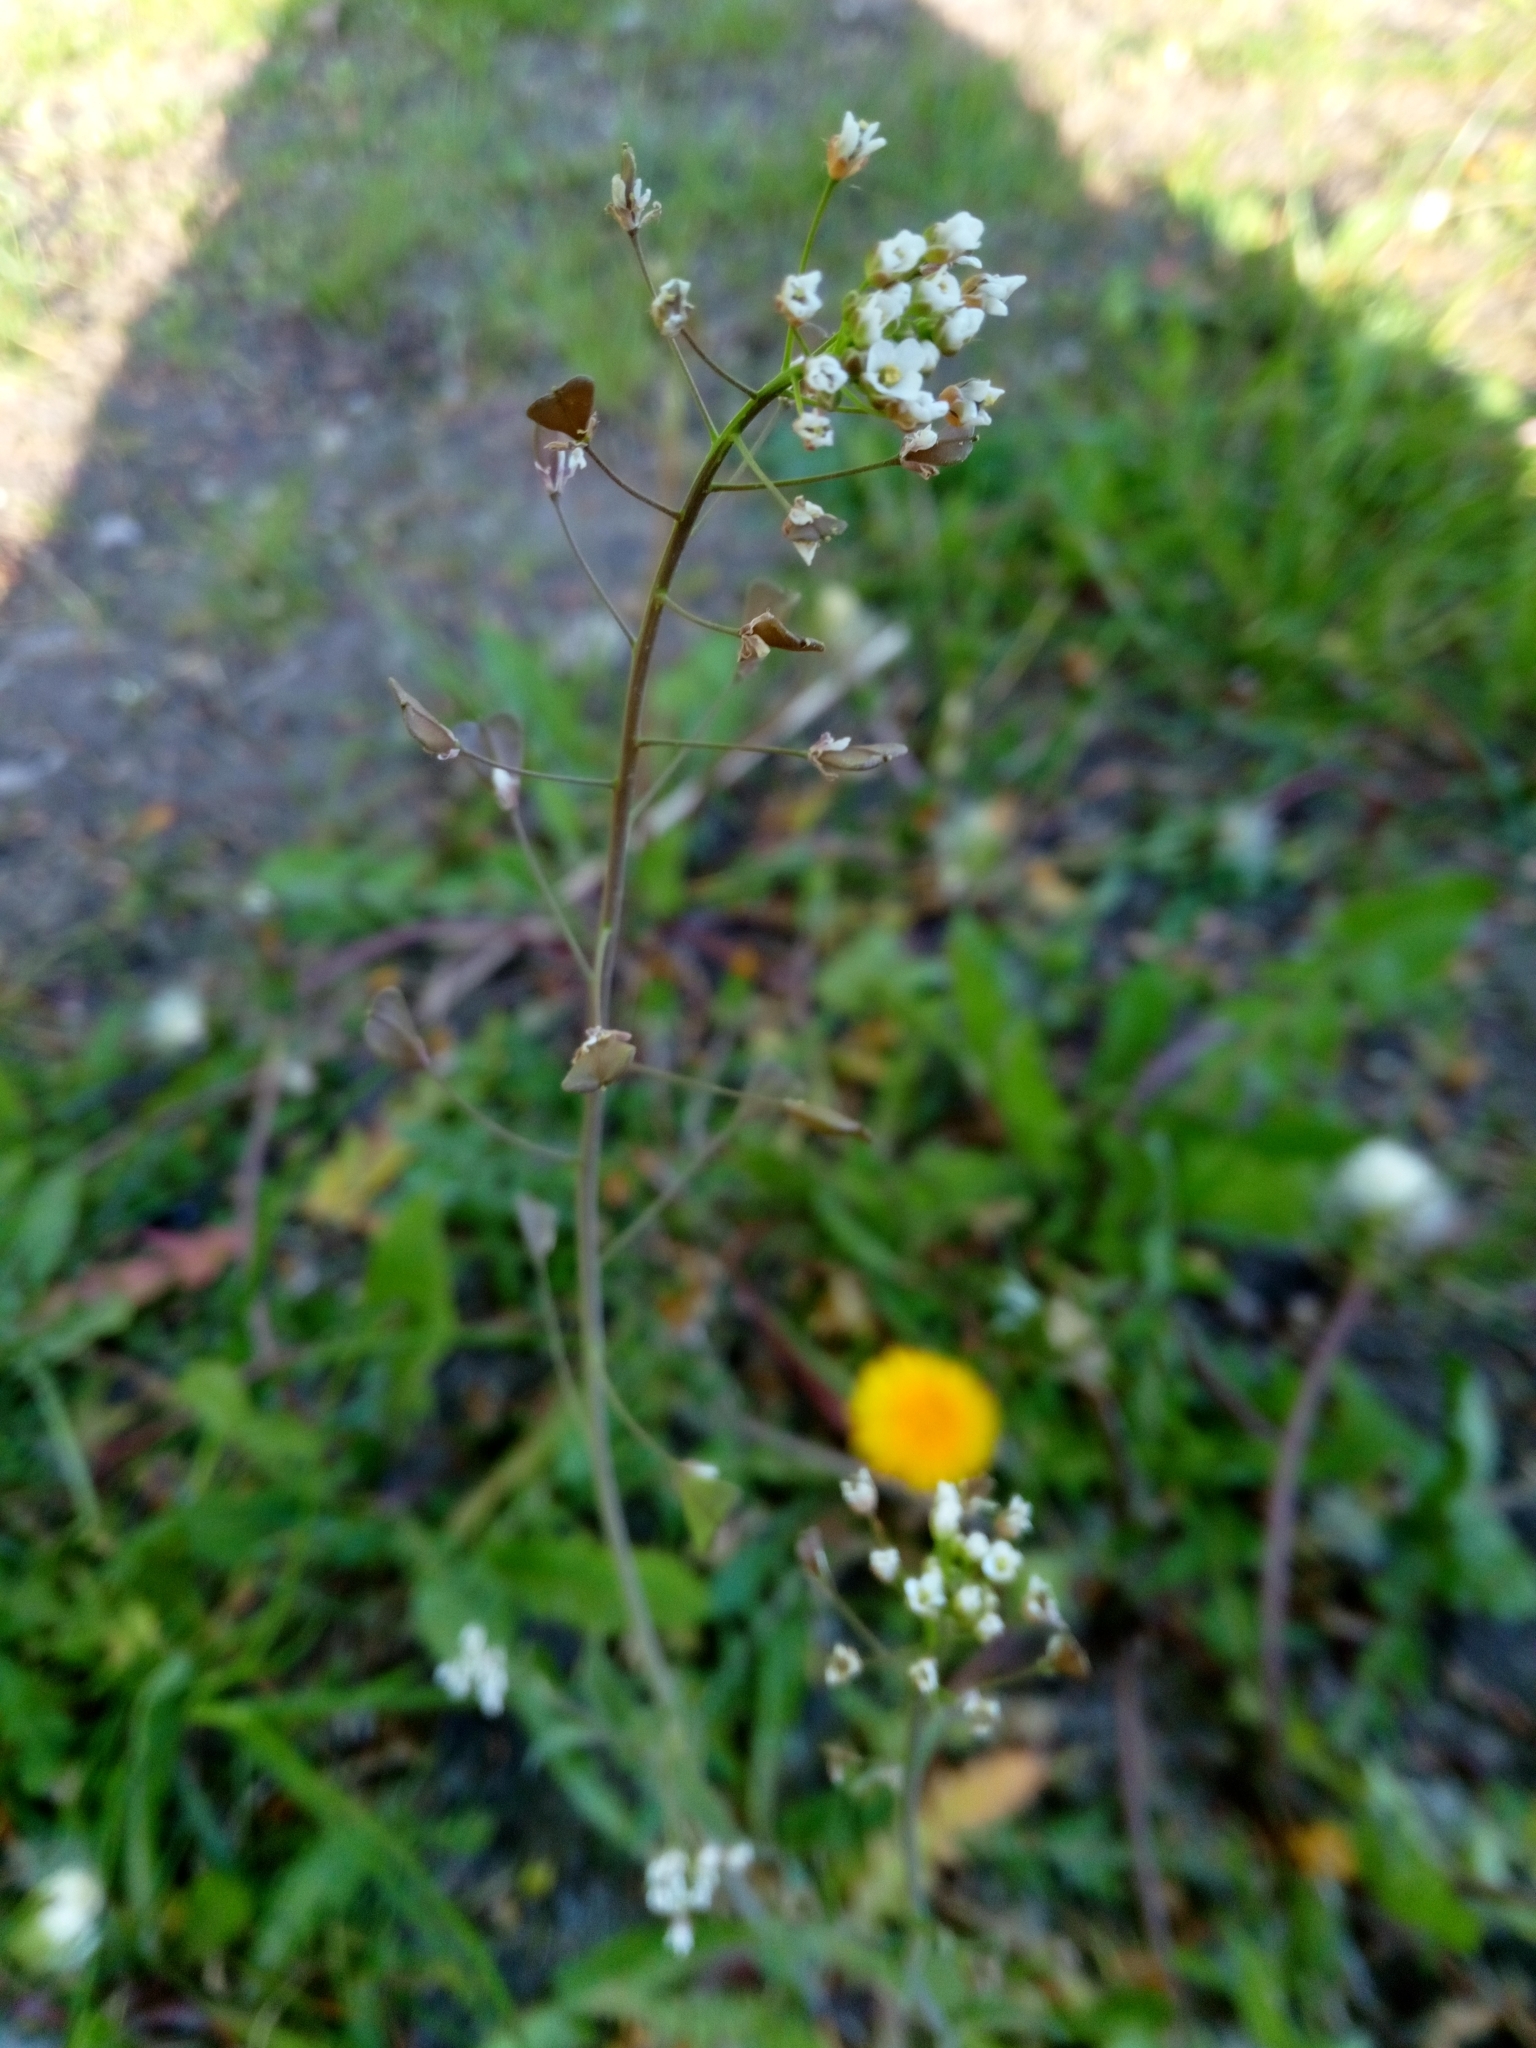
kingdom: Plantae
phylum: Tracheophyta
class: Magnoliopsida
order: Brassicales
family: Brassicaceae
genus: Capsella
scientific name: Capsella bursa-pastoris
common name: Shepherd's purse
